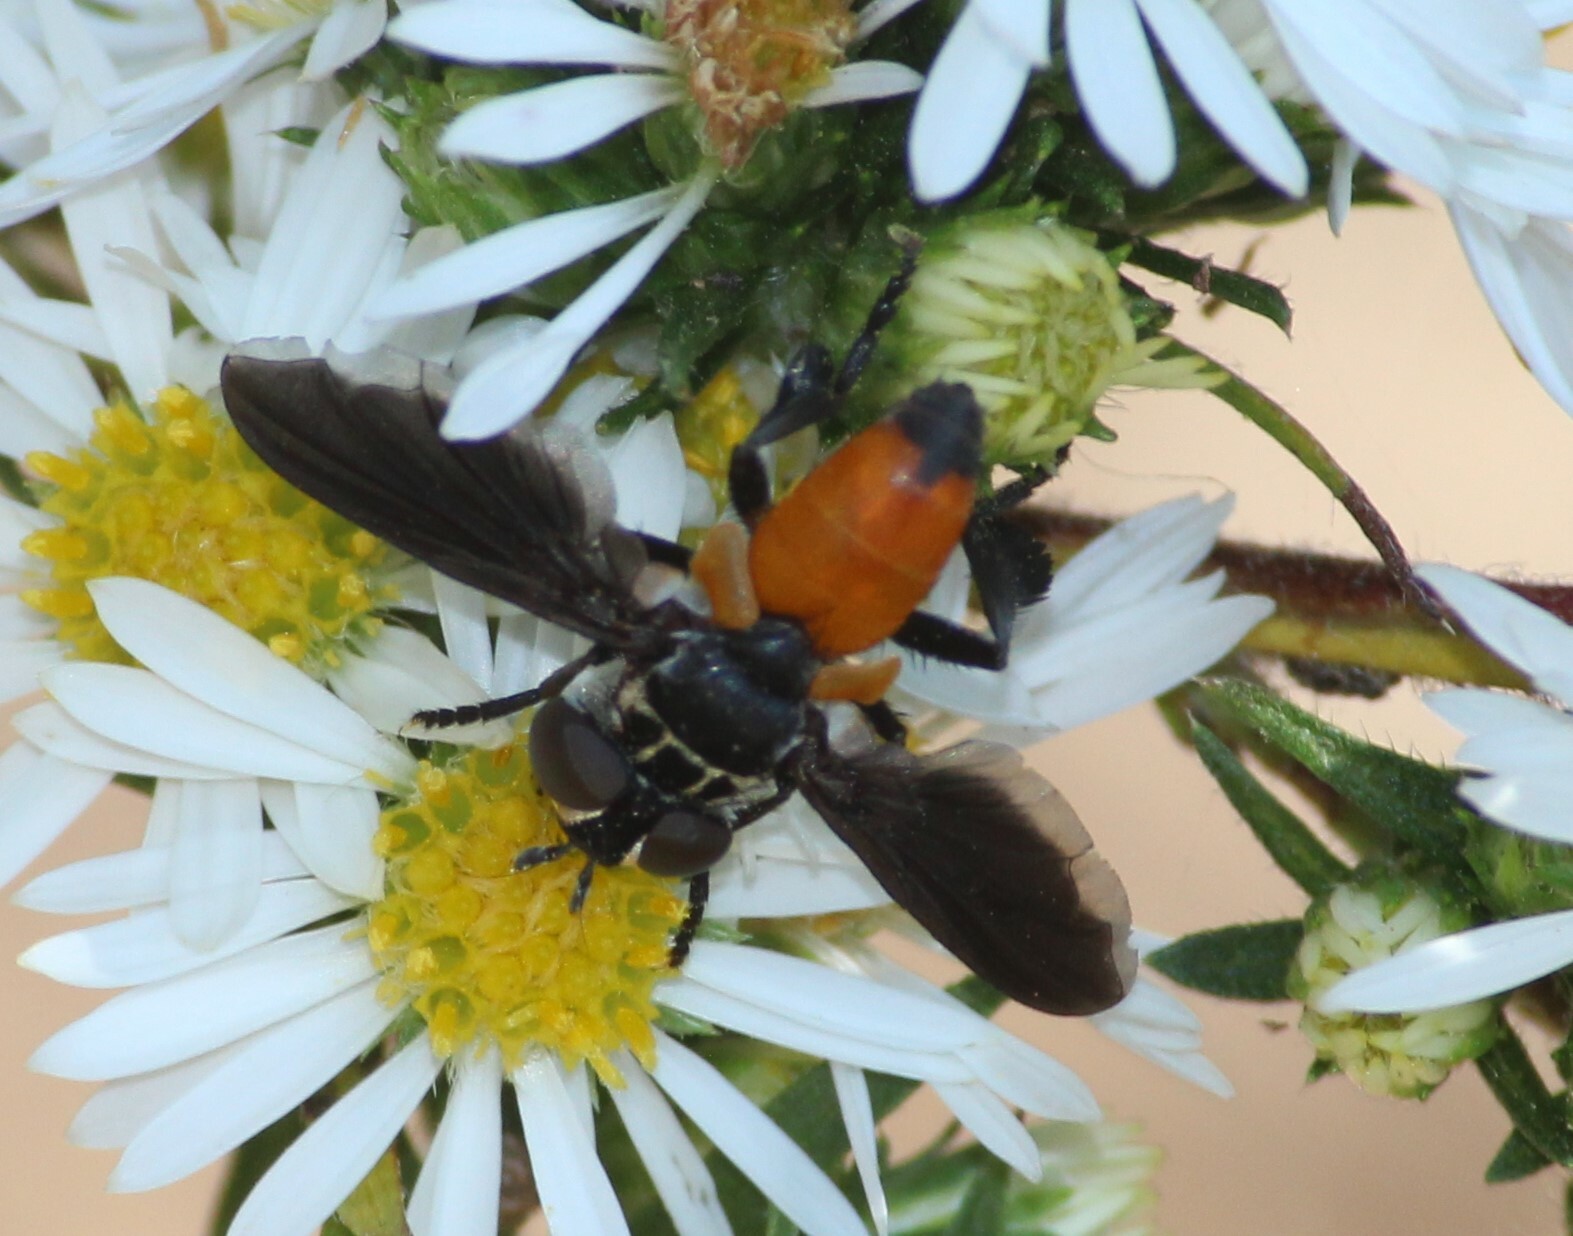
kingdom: Animalia
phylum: Arthropoda
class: Insecta
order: Diptera
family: Tachinidae
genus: Trichopoda
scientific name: Trichopoda pennipes
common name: Tachinid fly
